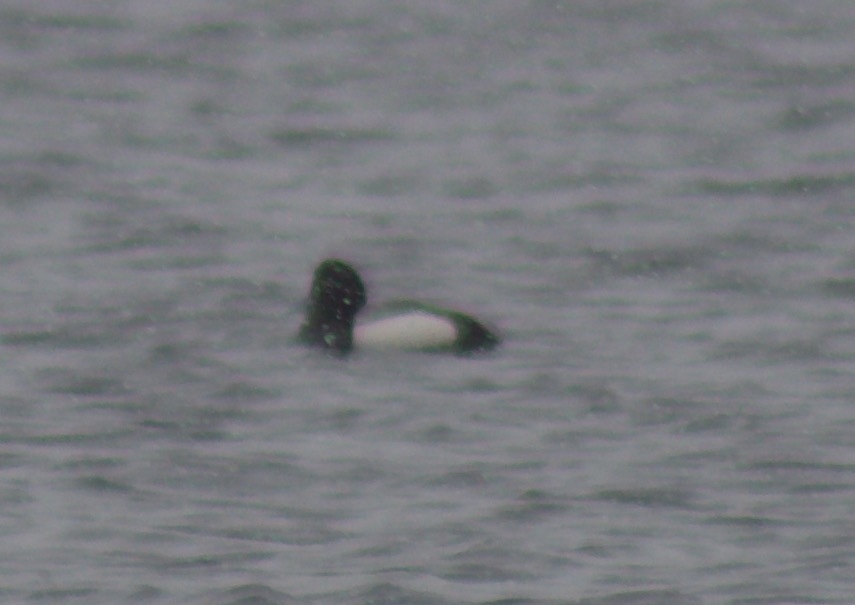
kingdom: Animalia
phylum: Chordata
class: Aves
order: Anseriformes
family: Anatidae
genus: Aythya
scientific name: Aythya marila
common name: Greater scaup
